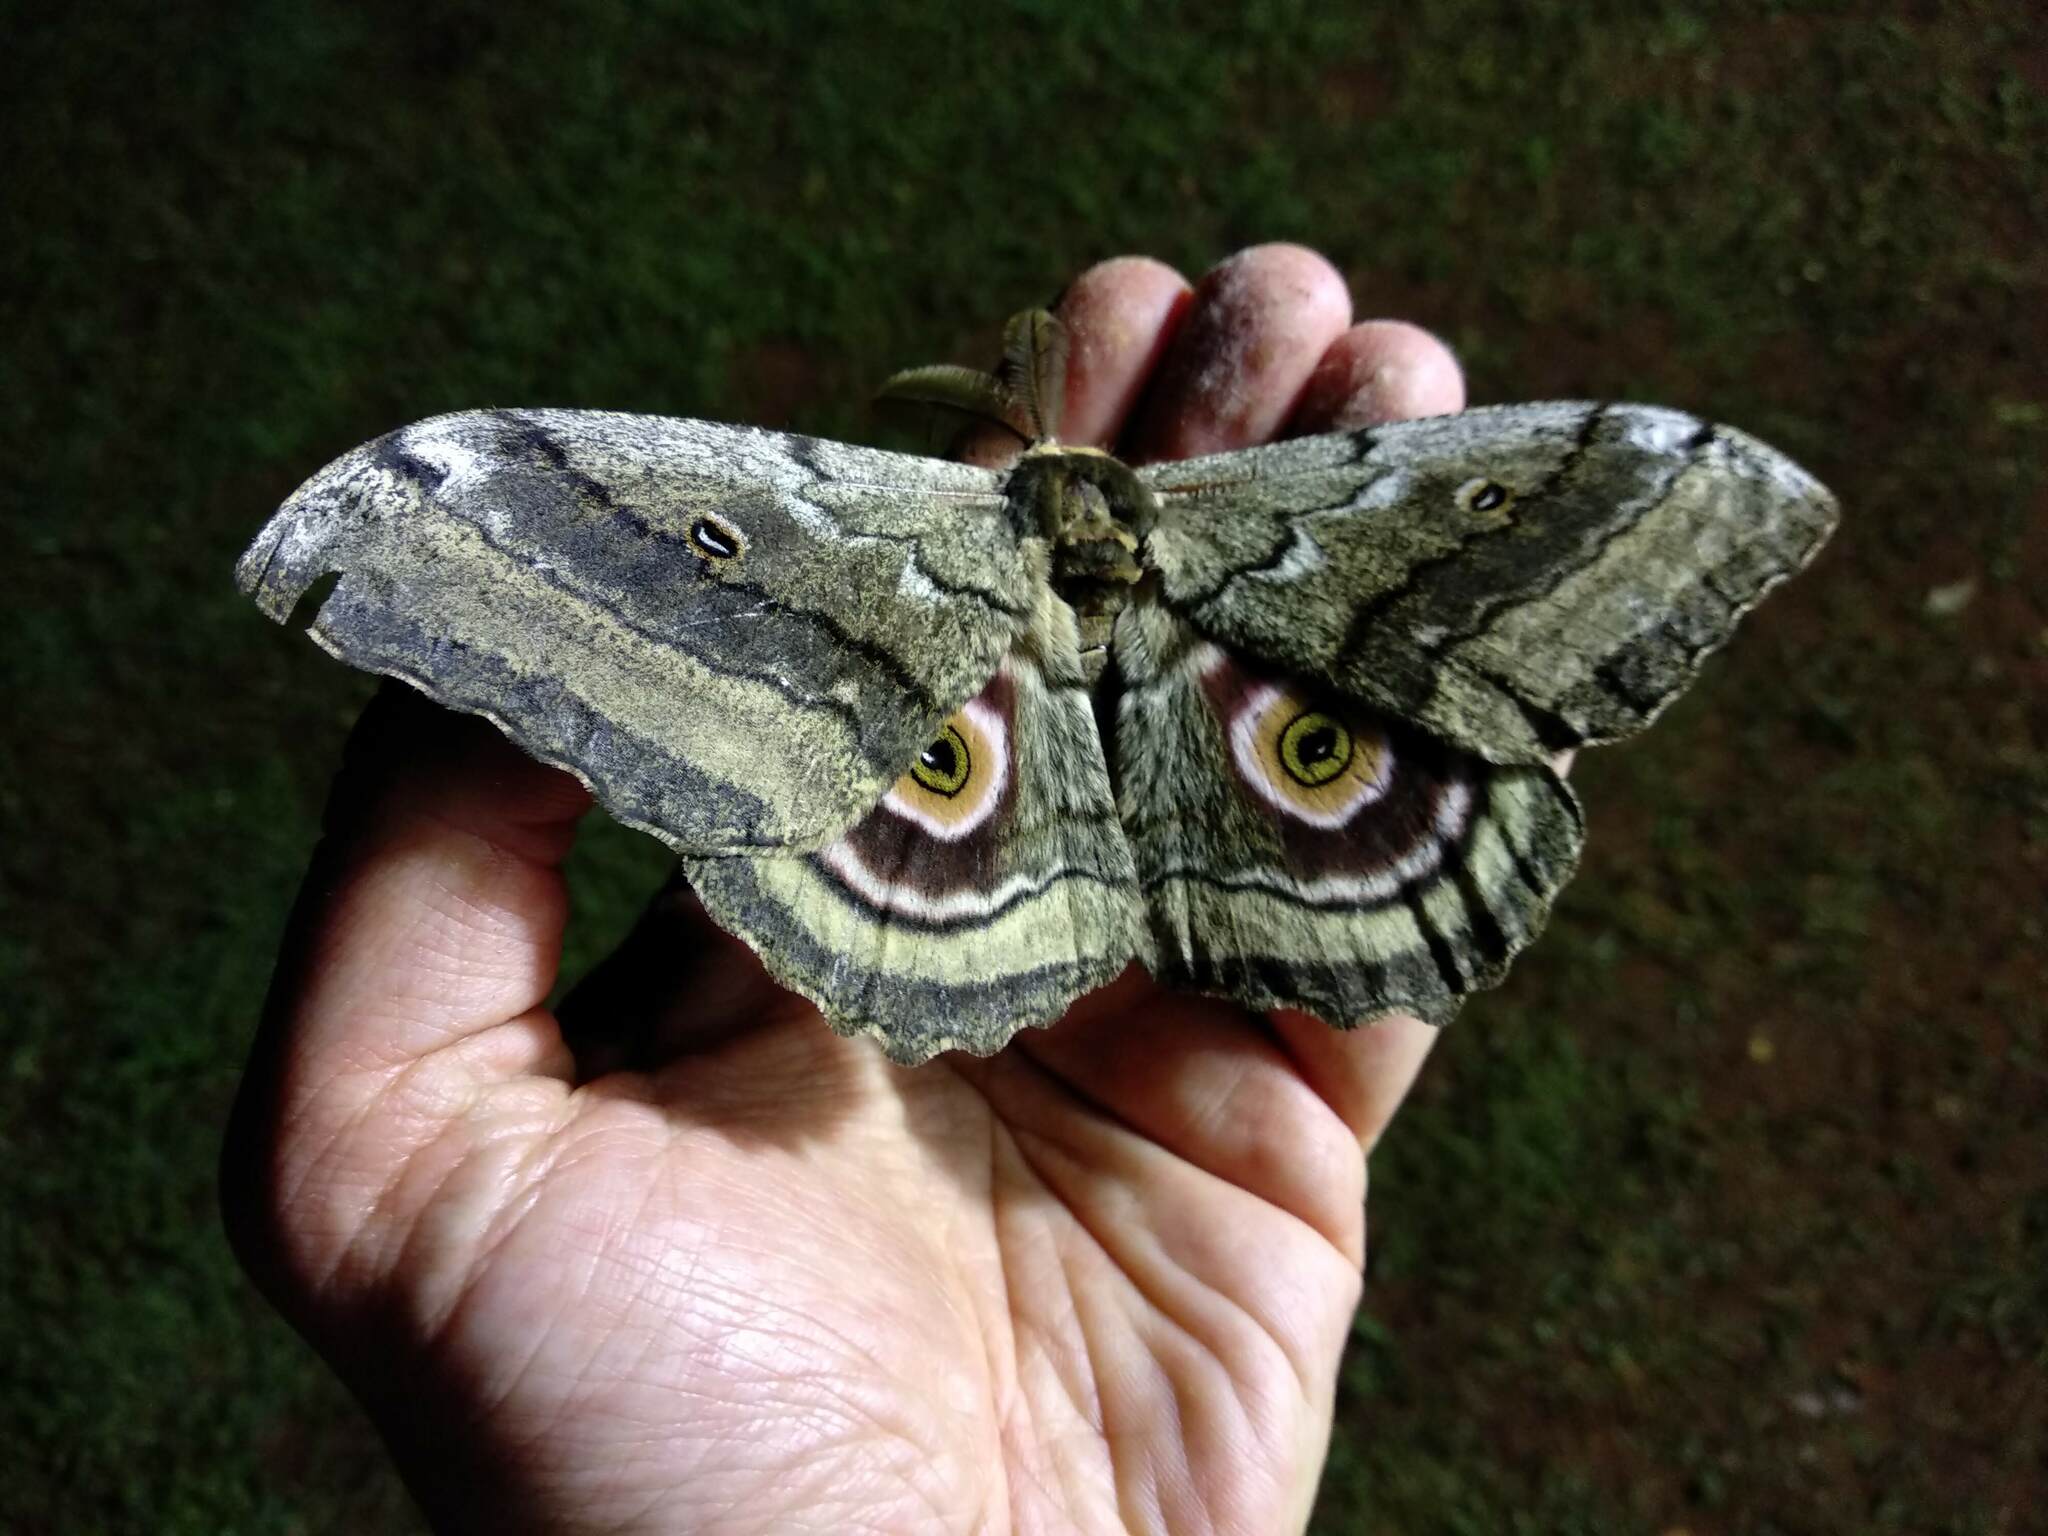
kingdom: Animalia
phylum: Arthropoda
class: Insecta
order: Lepidoptera
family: Saturniidae
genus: Gynanisa
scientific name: Gynanisa maja
